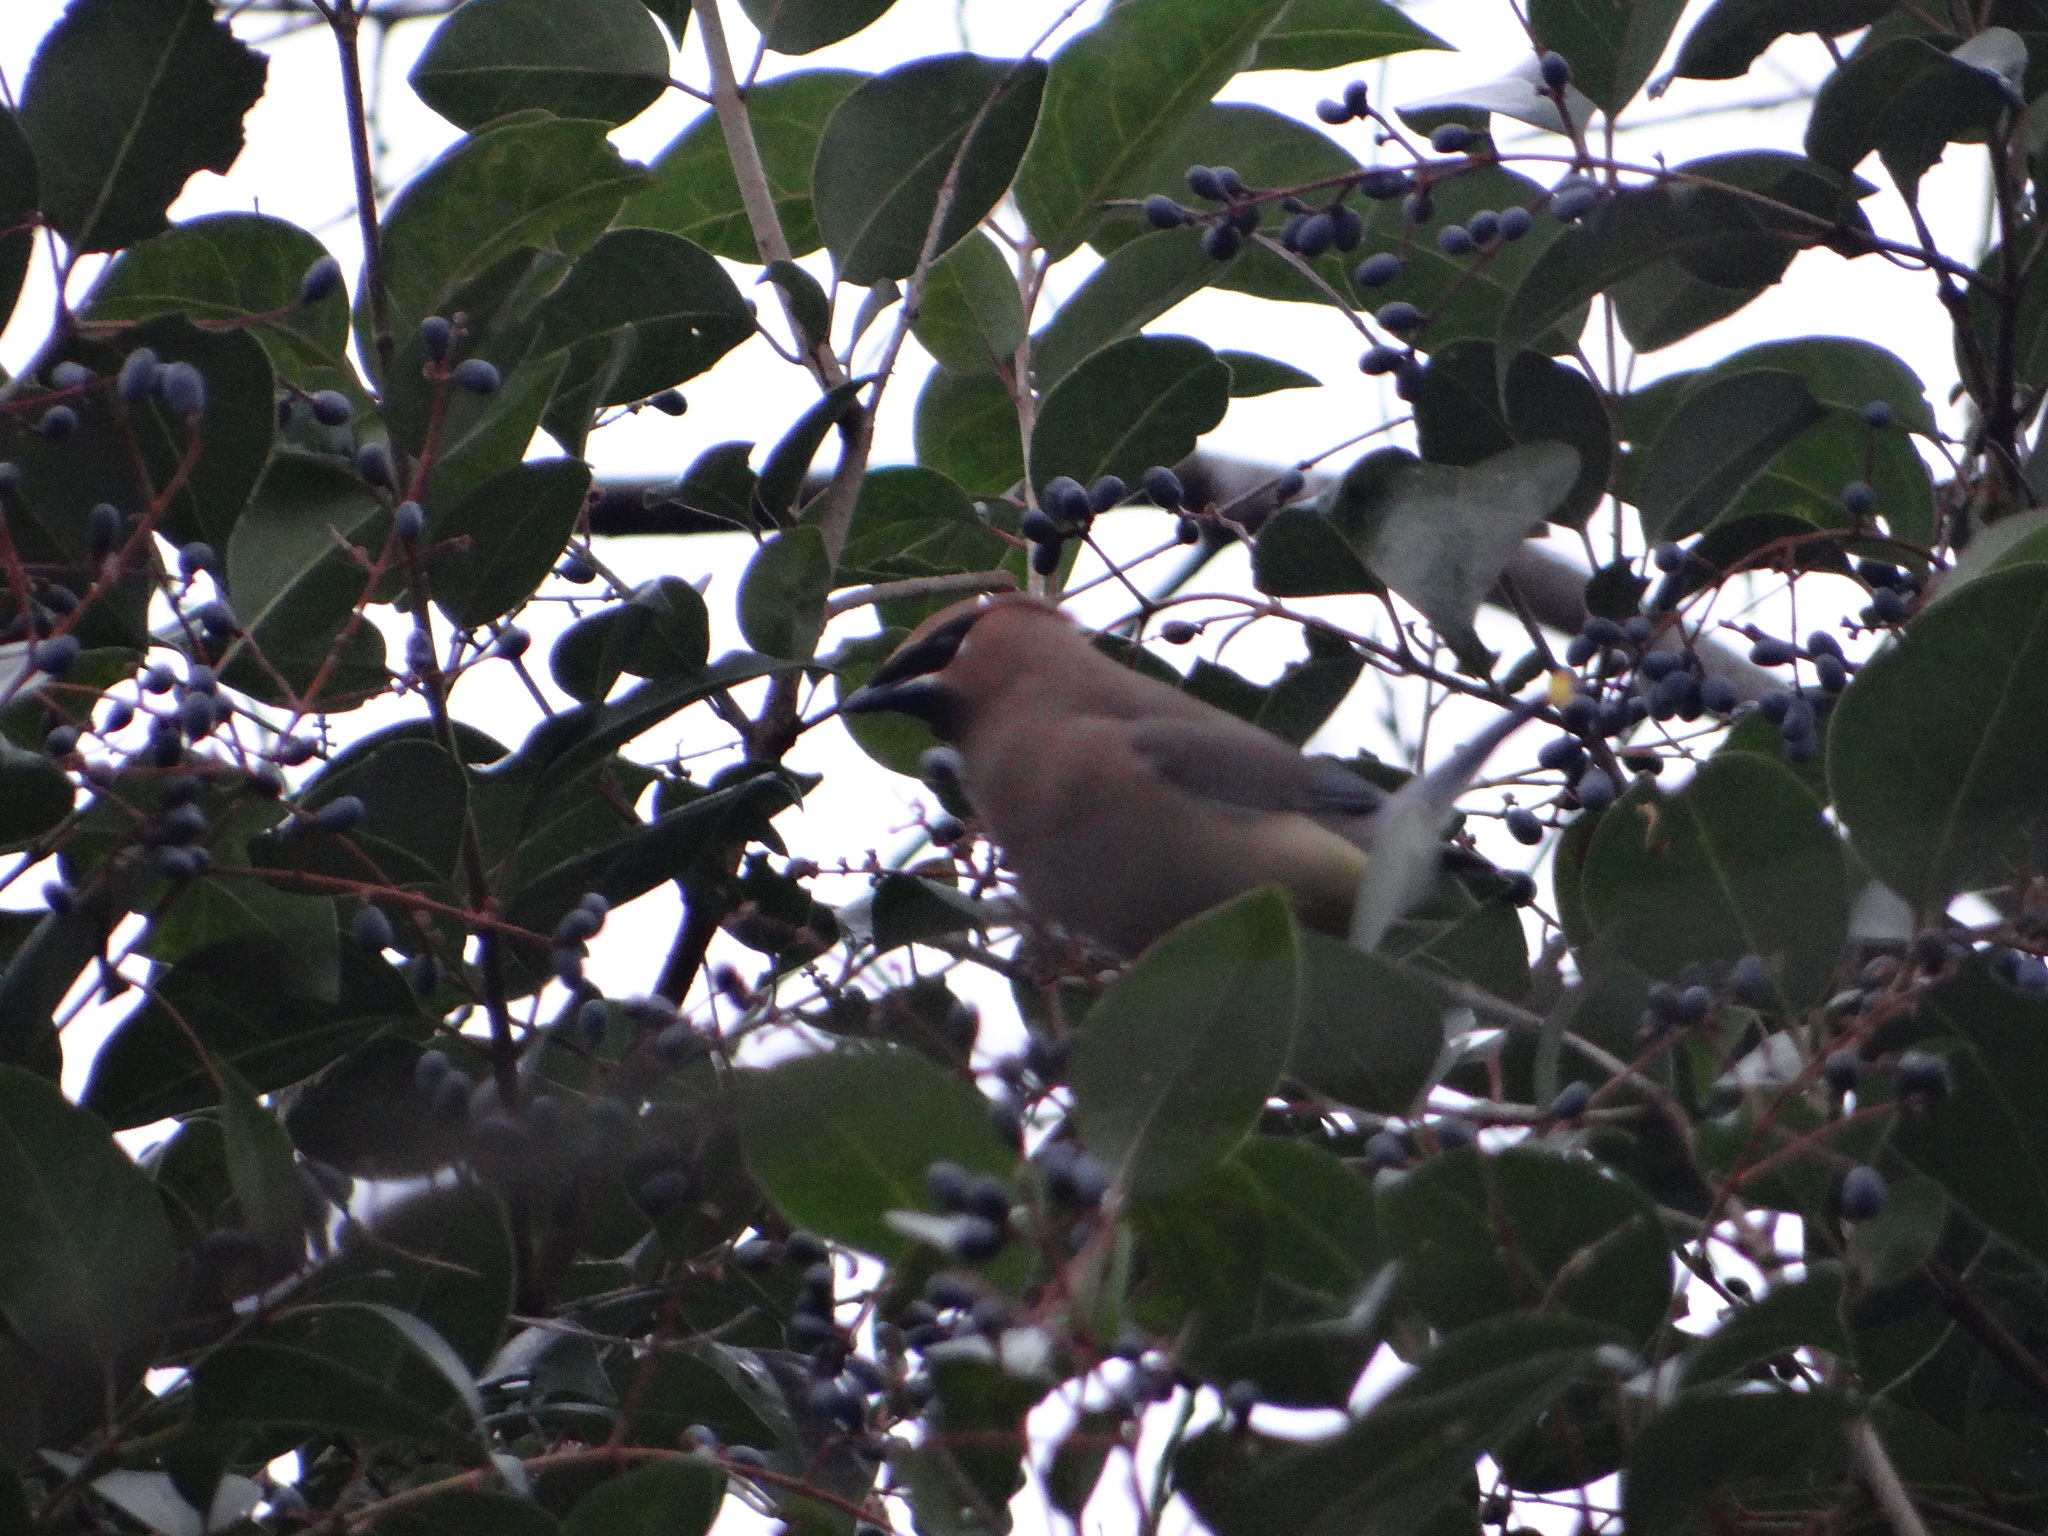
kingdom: Animalia
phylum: Chordata
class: Aves
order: Passeriformes
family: Bombycillidae
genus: Bombycilla
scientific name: Bombycilla cedrorum
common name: Cedar waxwing
